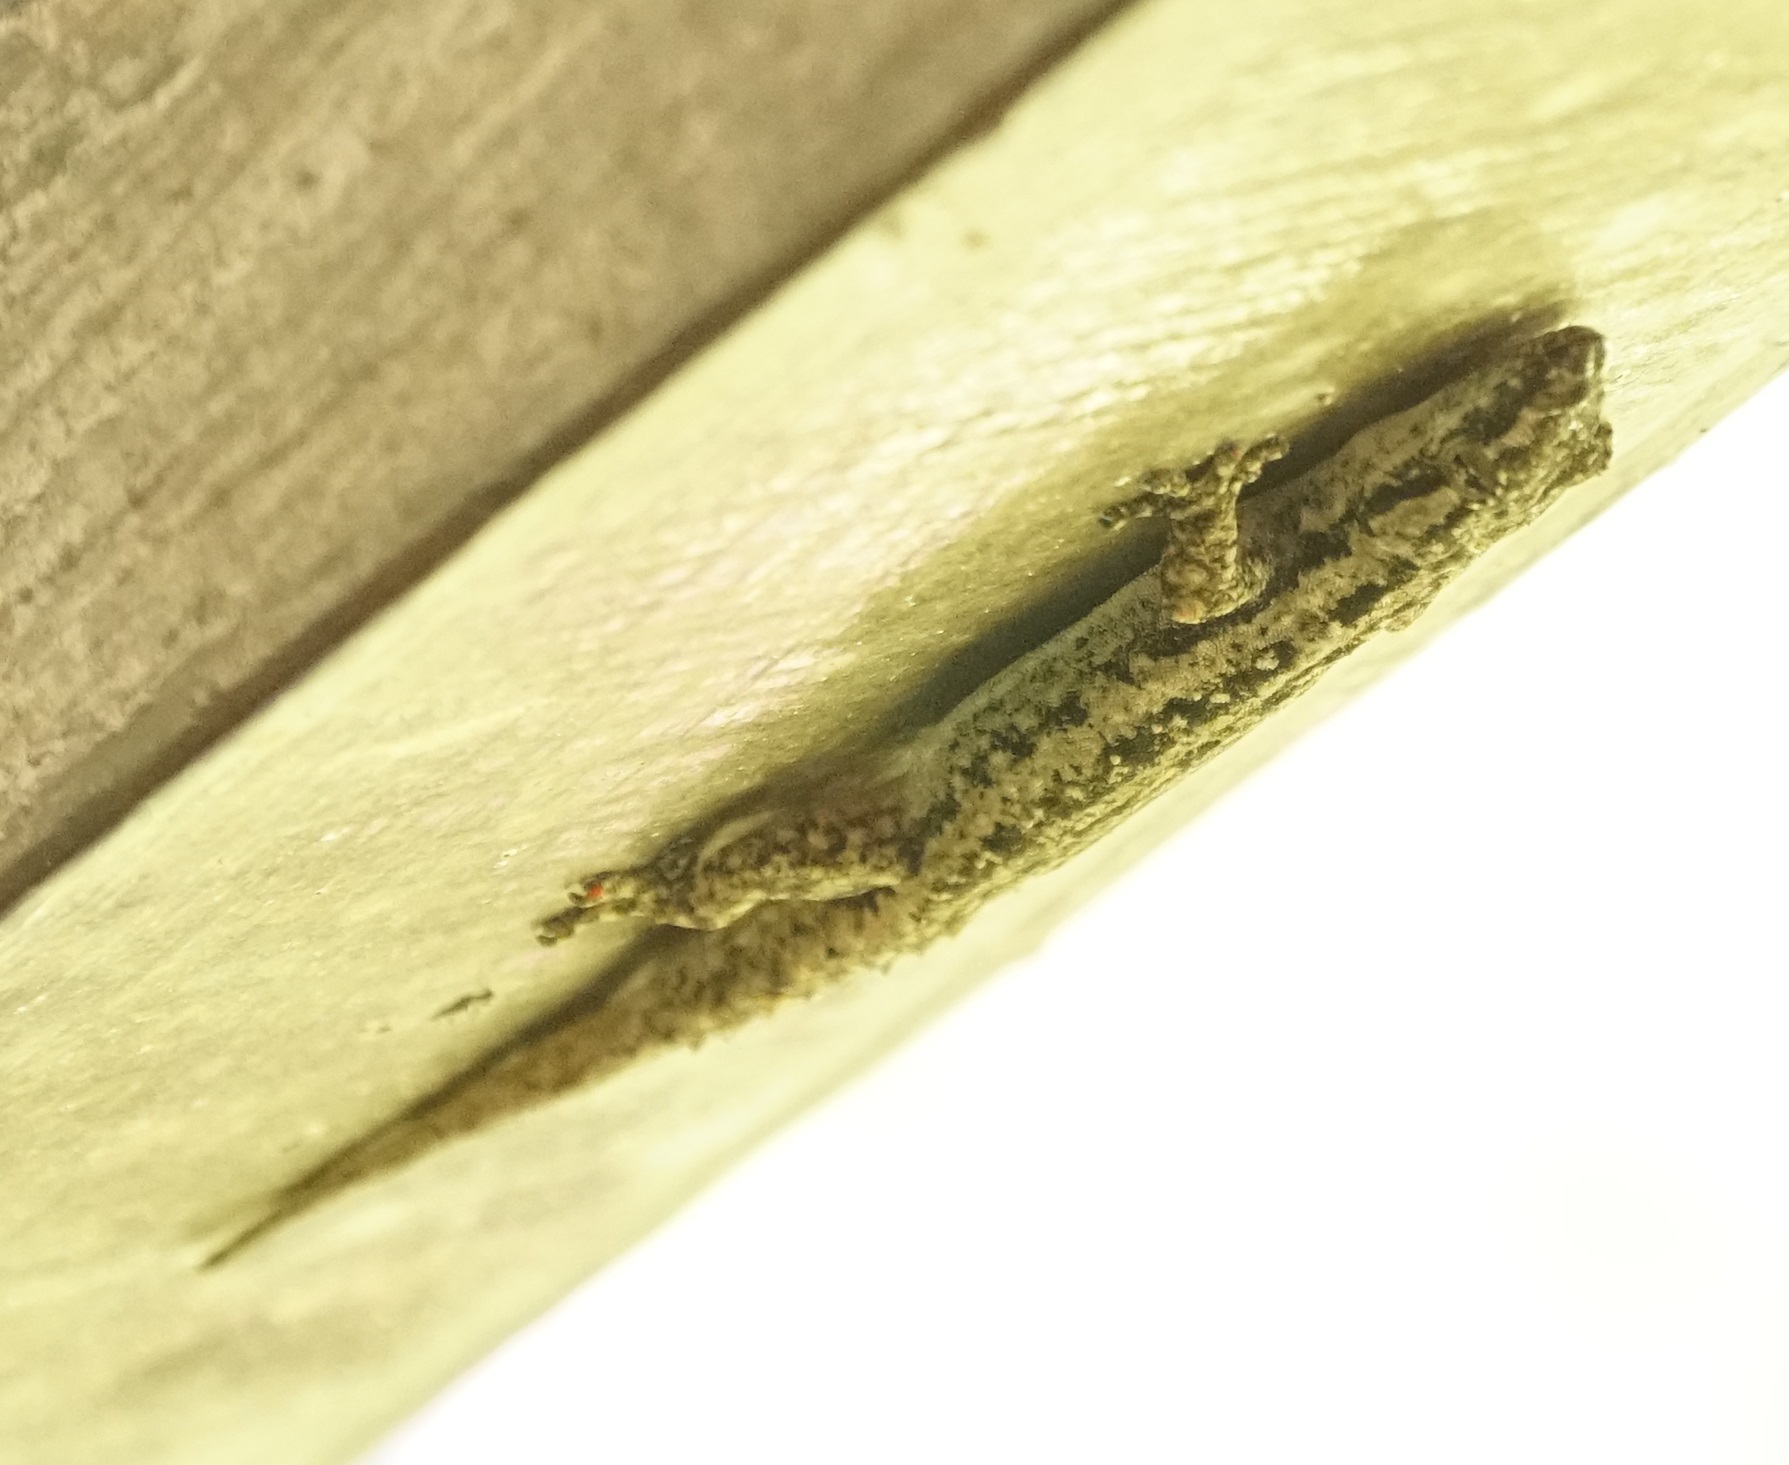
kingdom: Animalia
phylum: Chordata
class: Squamata
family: Gekkonidae
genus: Hemidactylus
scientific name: Hemidactylus frenatus
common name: Common house gecko
